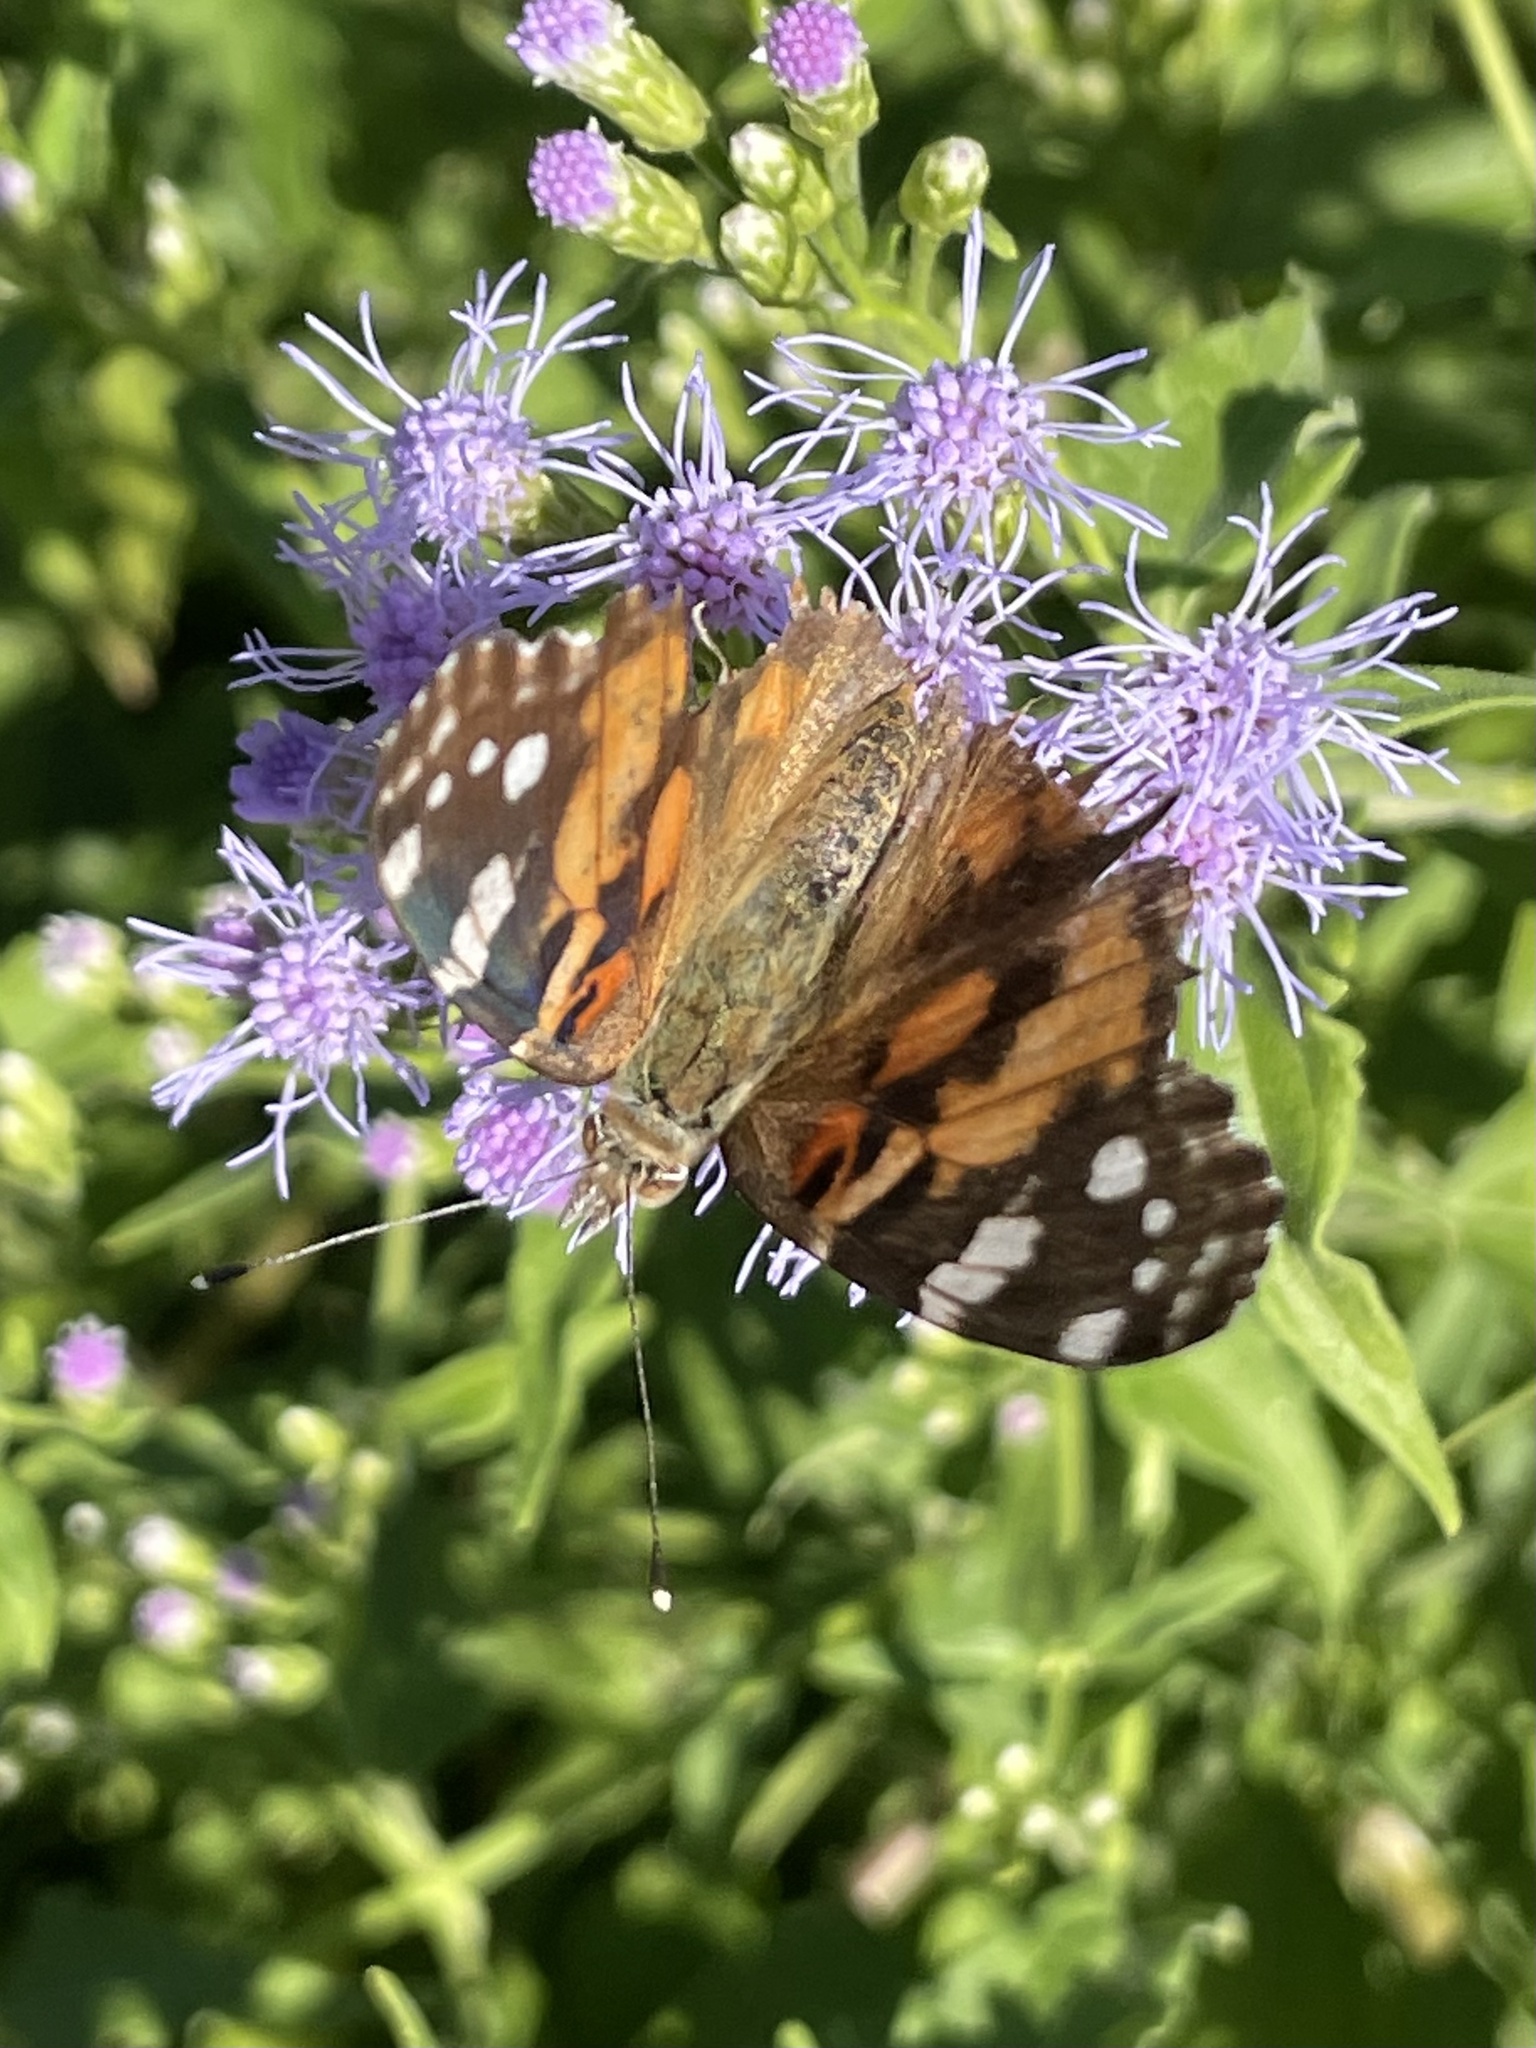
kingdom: Animalia
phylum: Arthropoda
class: Insecta
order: Lepidoptera
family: Nymphalidae
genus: Vanessa
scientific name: Vanessa cardui
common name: Painted lady
